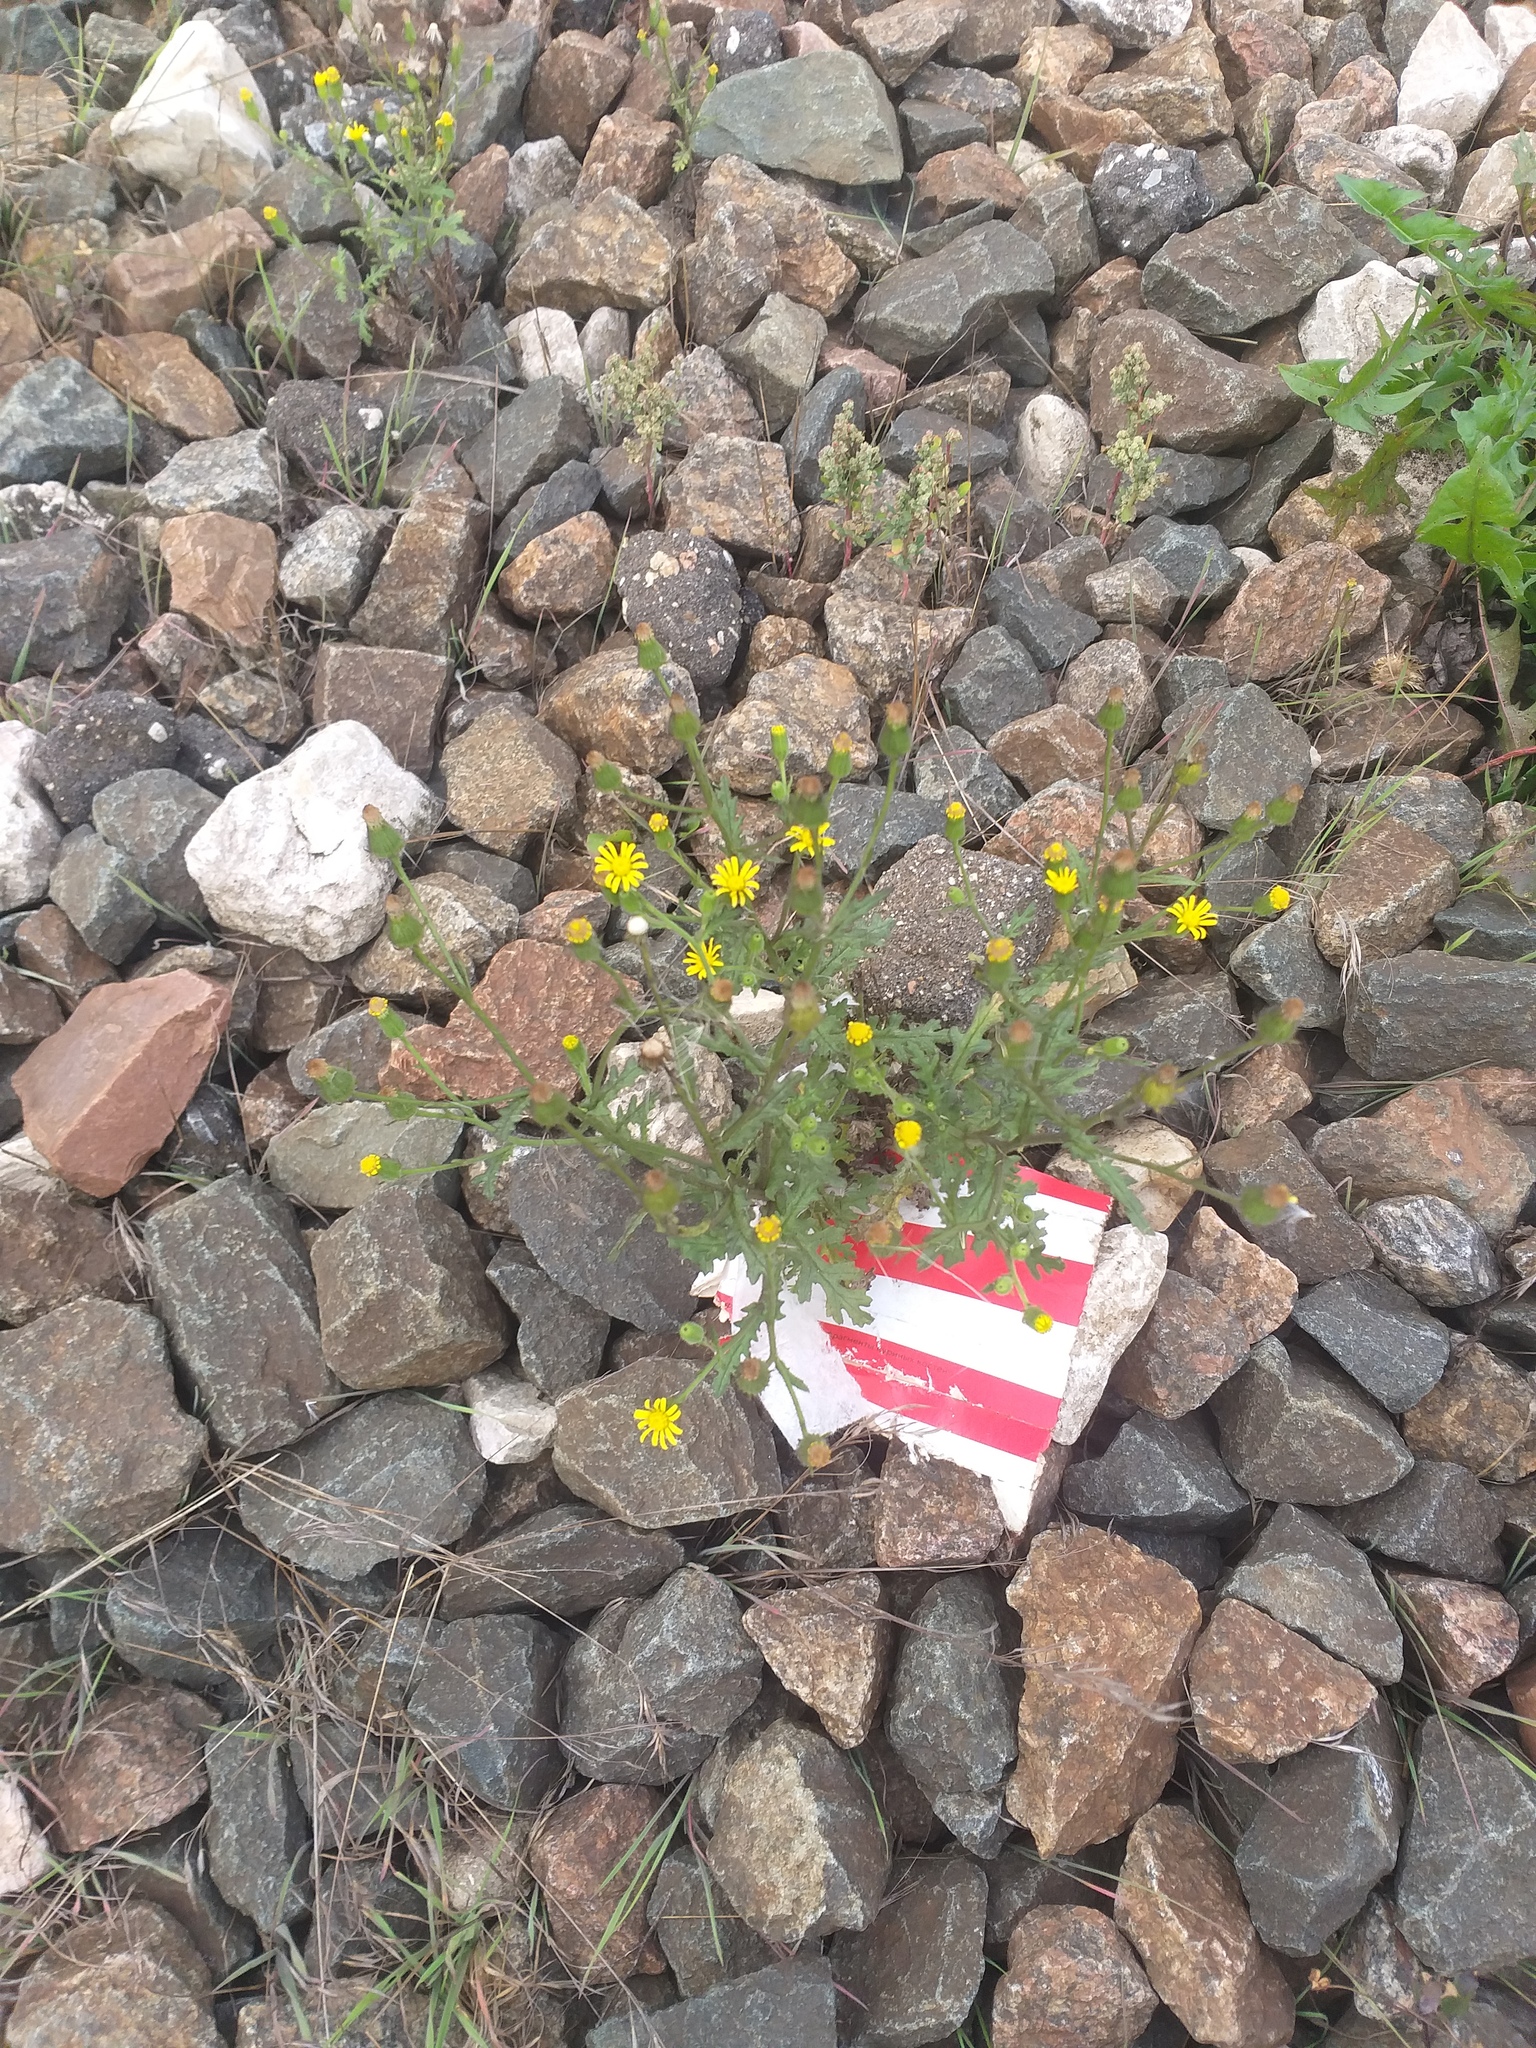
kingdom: Plantae
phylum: Tracheophyta
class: Magnoliopsida
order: Asterales
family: Asteraceae
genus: Senecio
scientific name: Senecio viscosus
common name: Sticky groundsel
